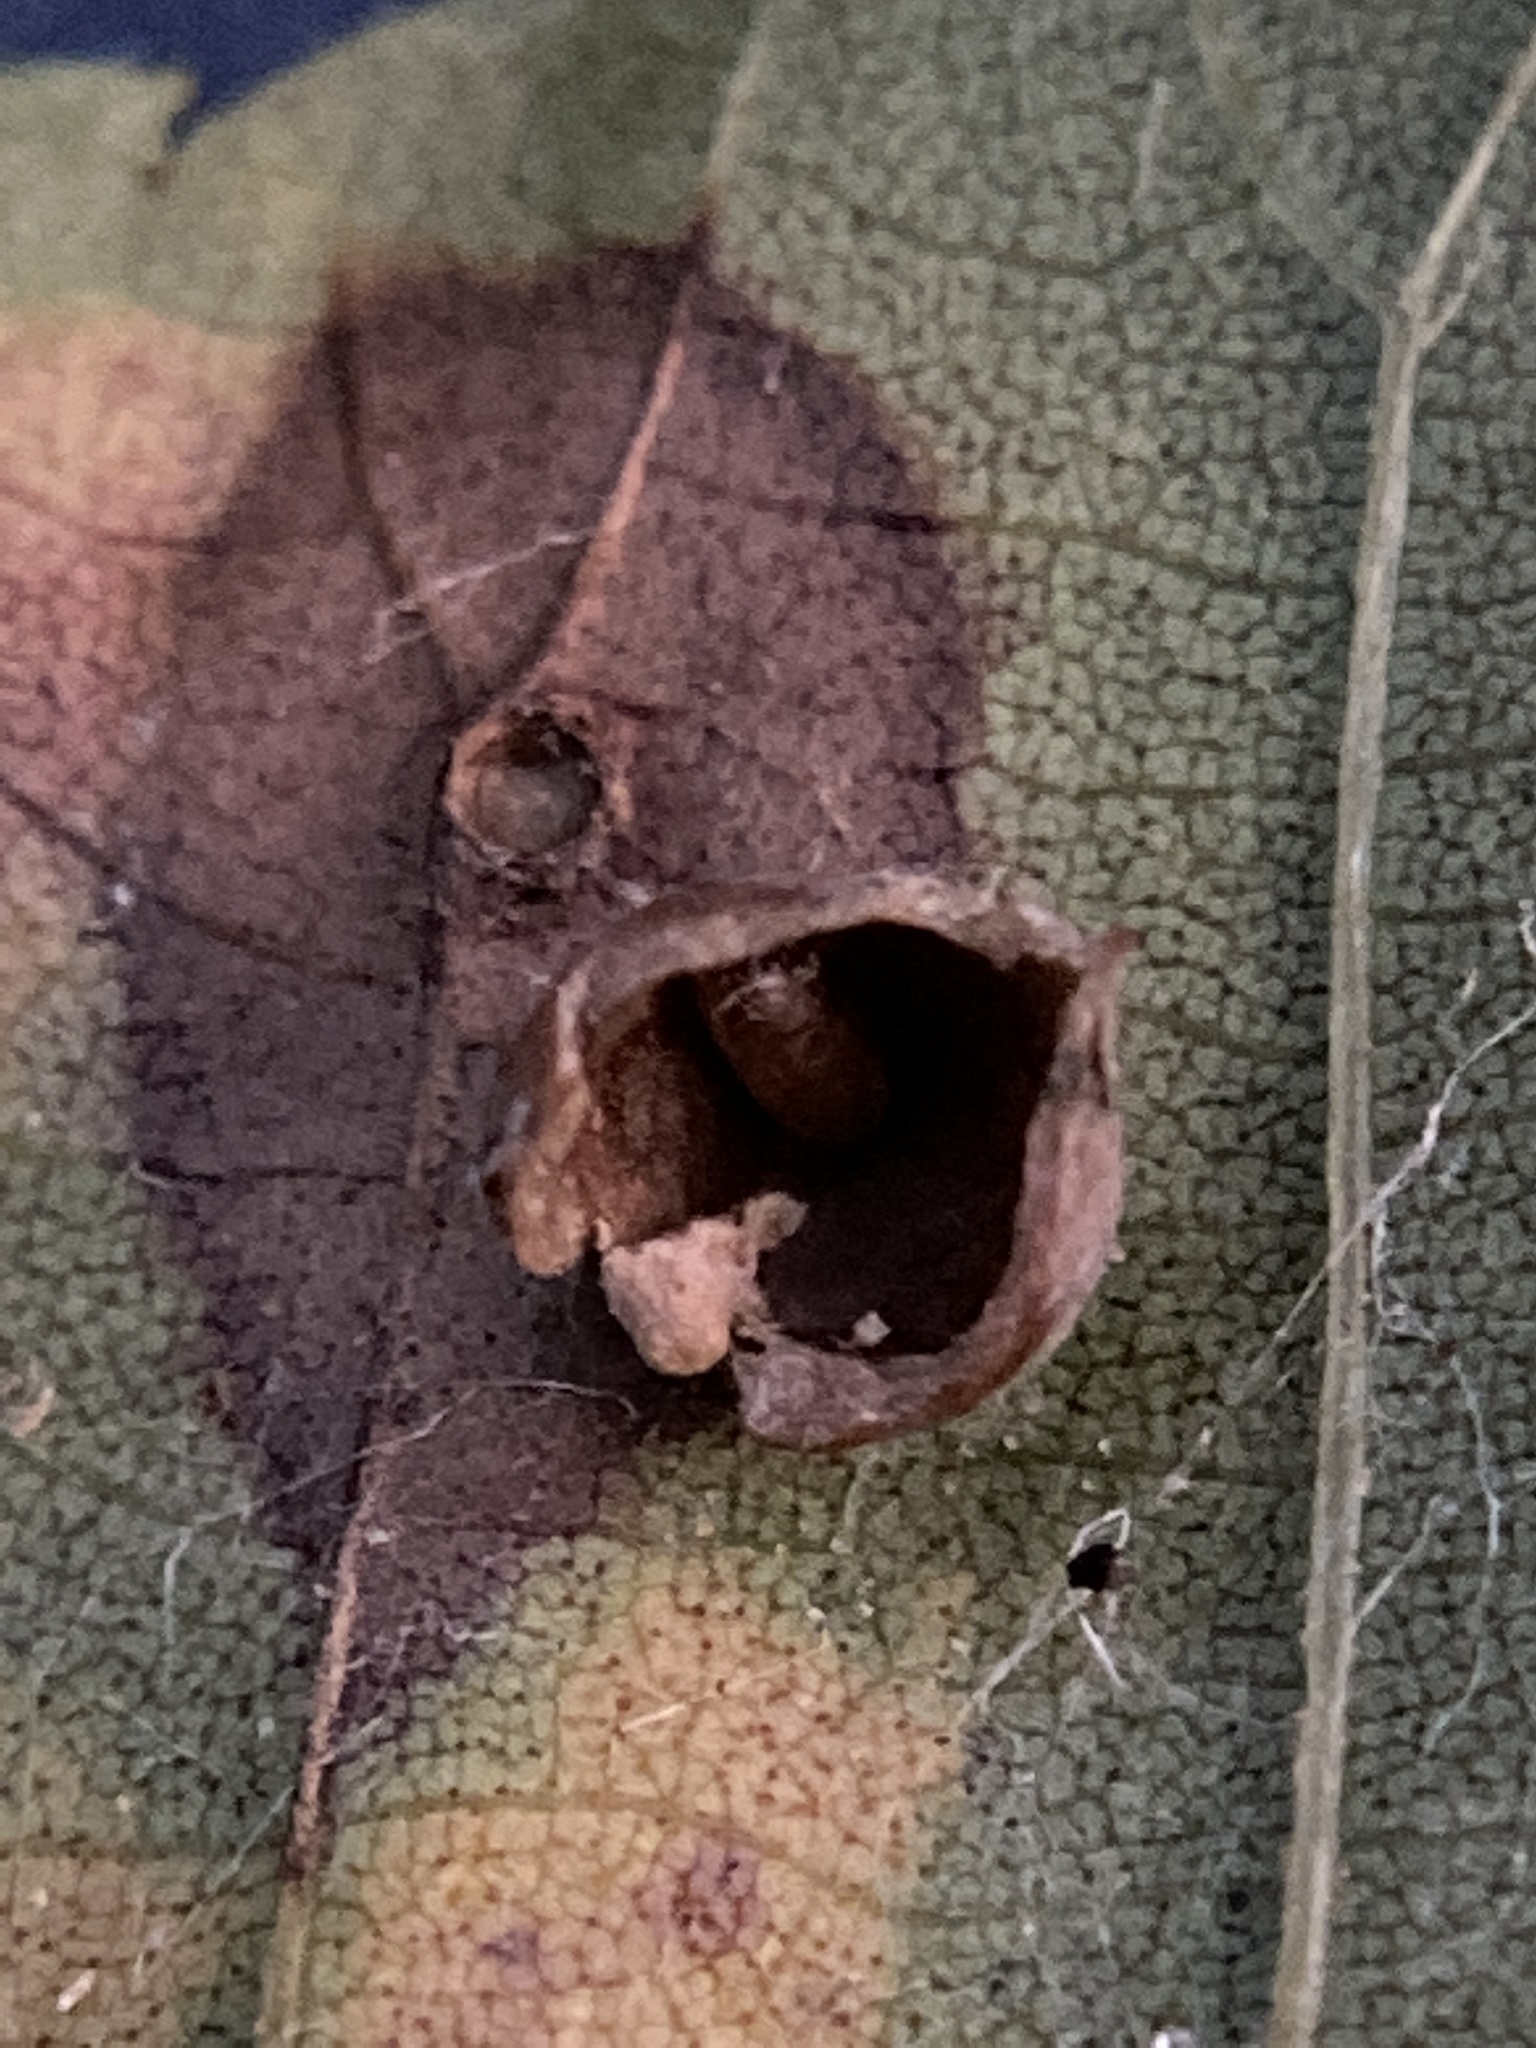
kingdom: Animalia
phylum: Arthropoda
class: Insecta
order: Diptera
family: Cecidomyiidae
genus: Caryomyia
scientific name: Caryomyia caryaecola
